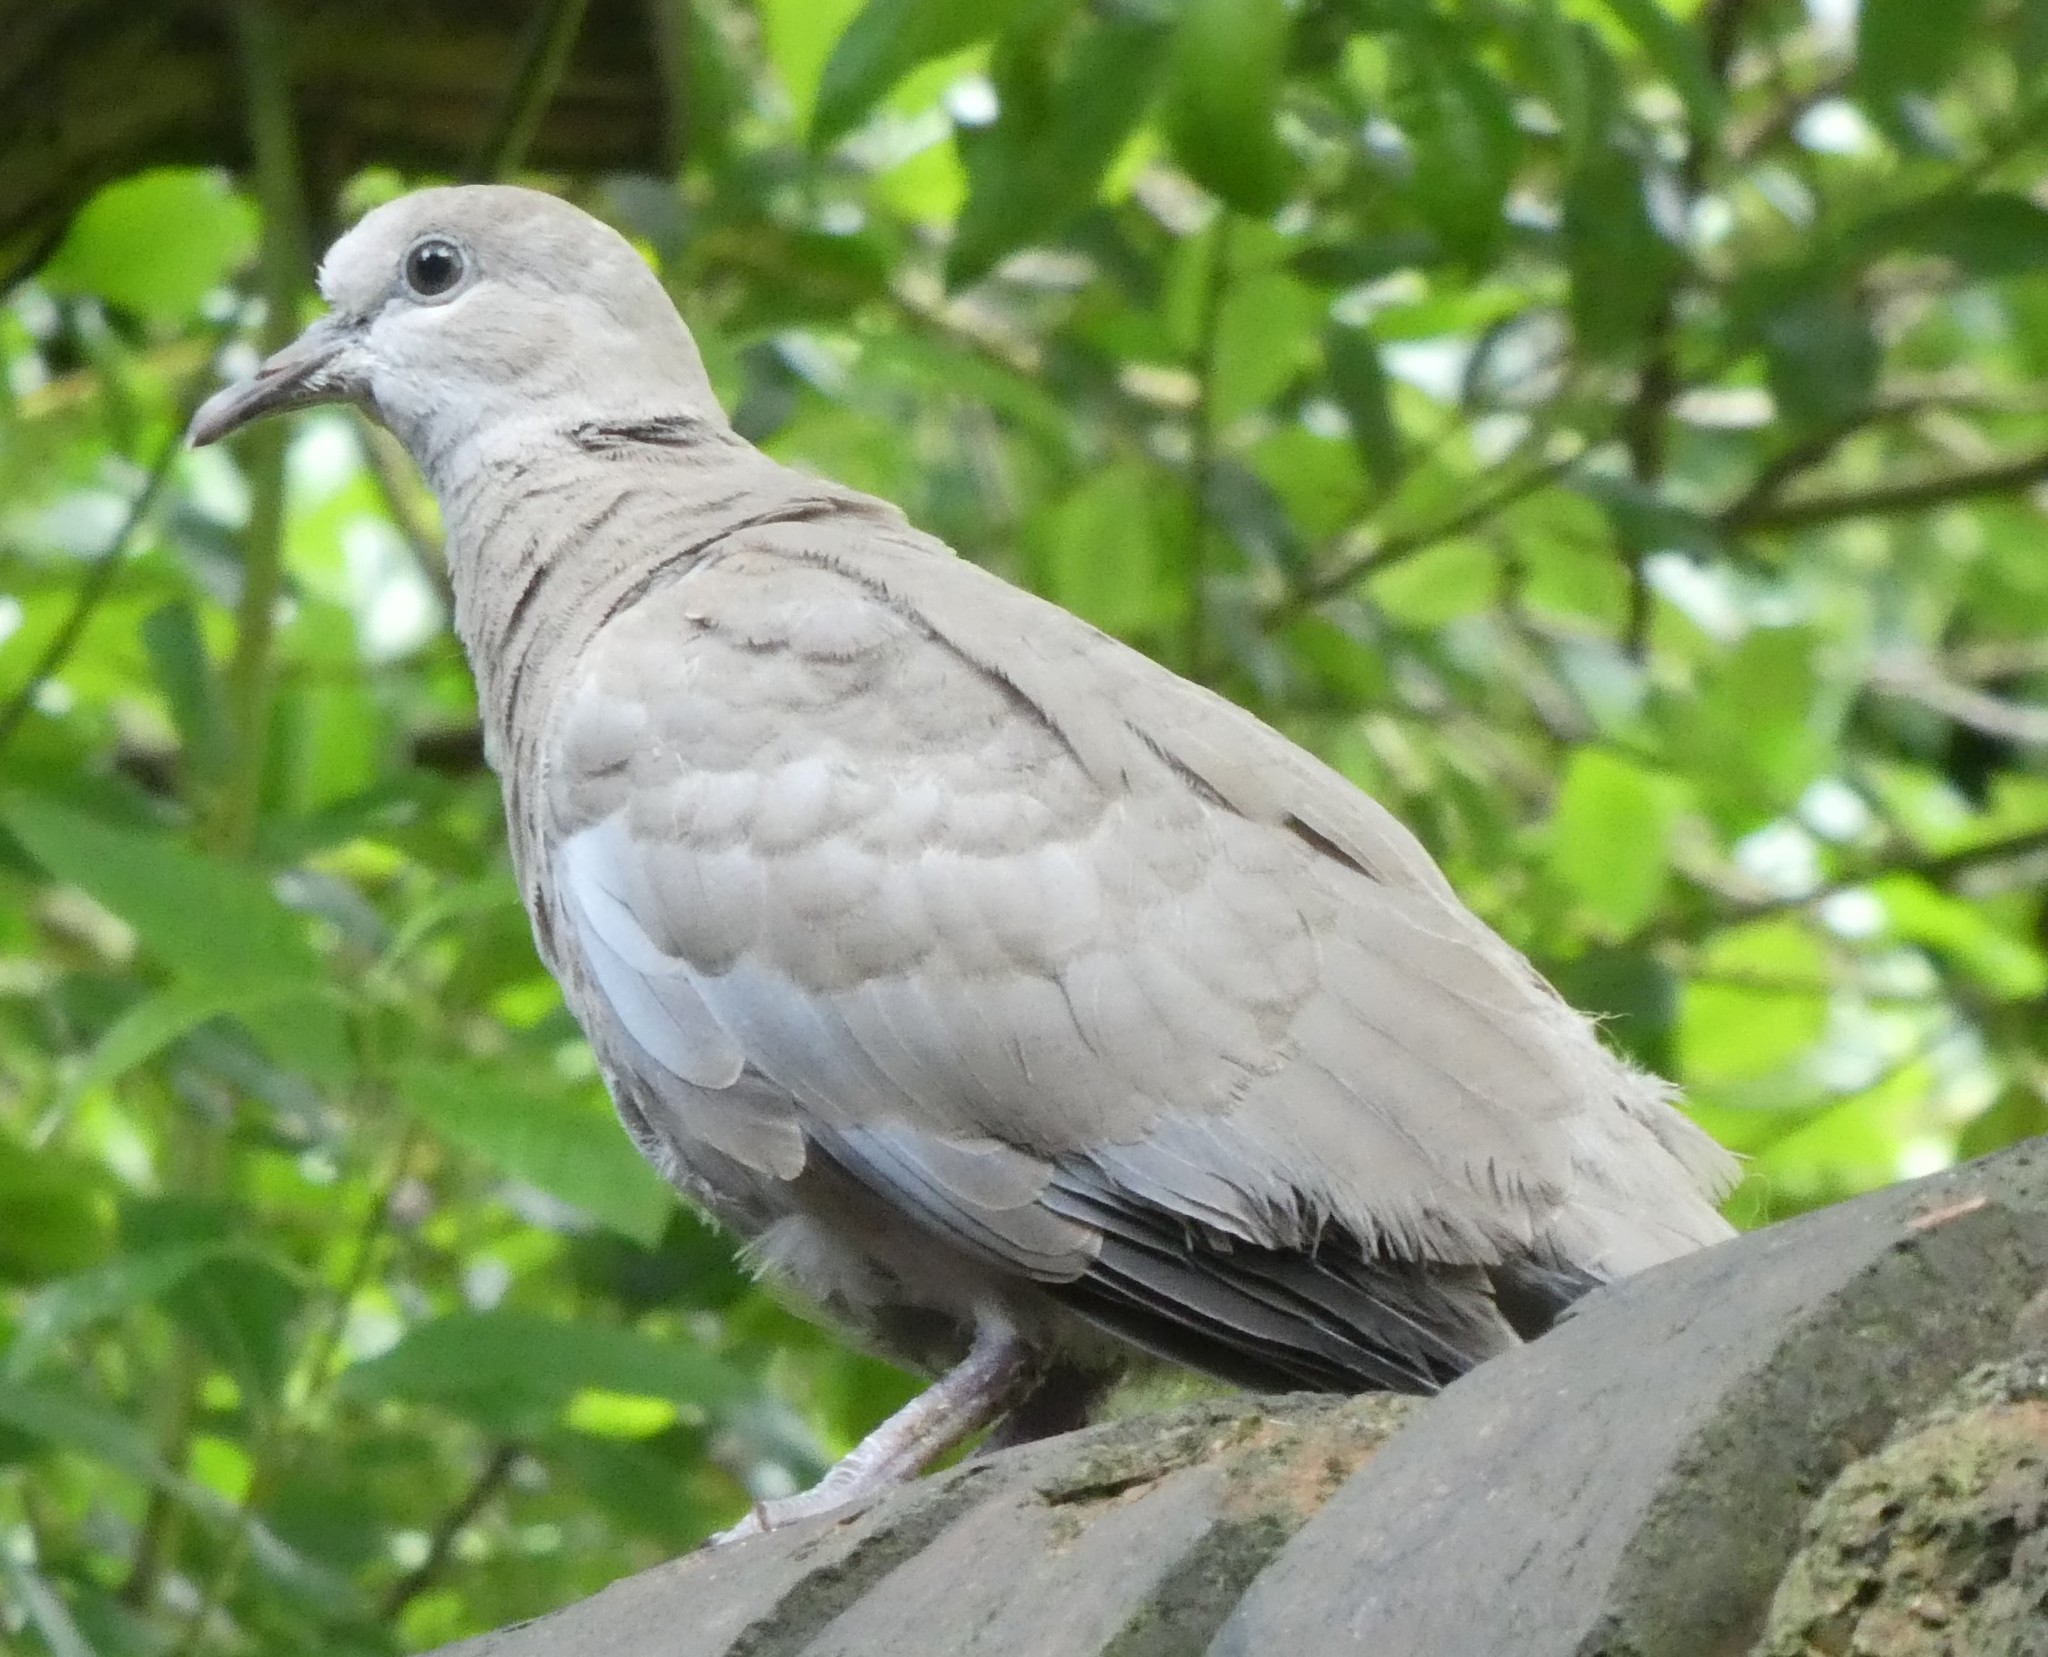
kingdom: Animalia
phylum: Chordata
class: Aves
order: Columbiformes
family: Columbidae
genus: Streptopelia
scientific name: Streptopelia decaocto
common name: Eurasian collared dove
